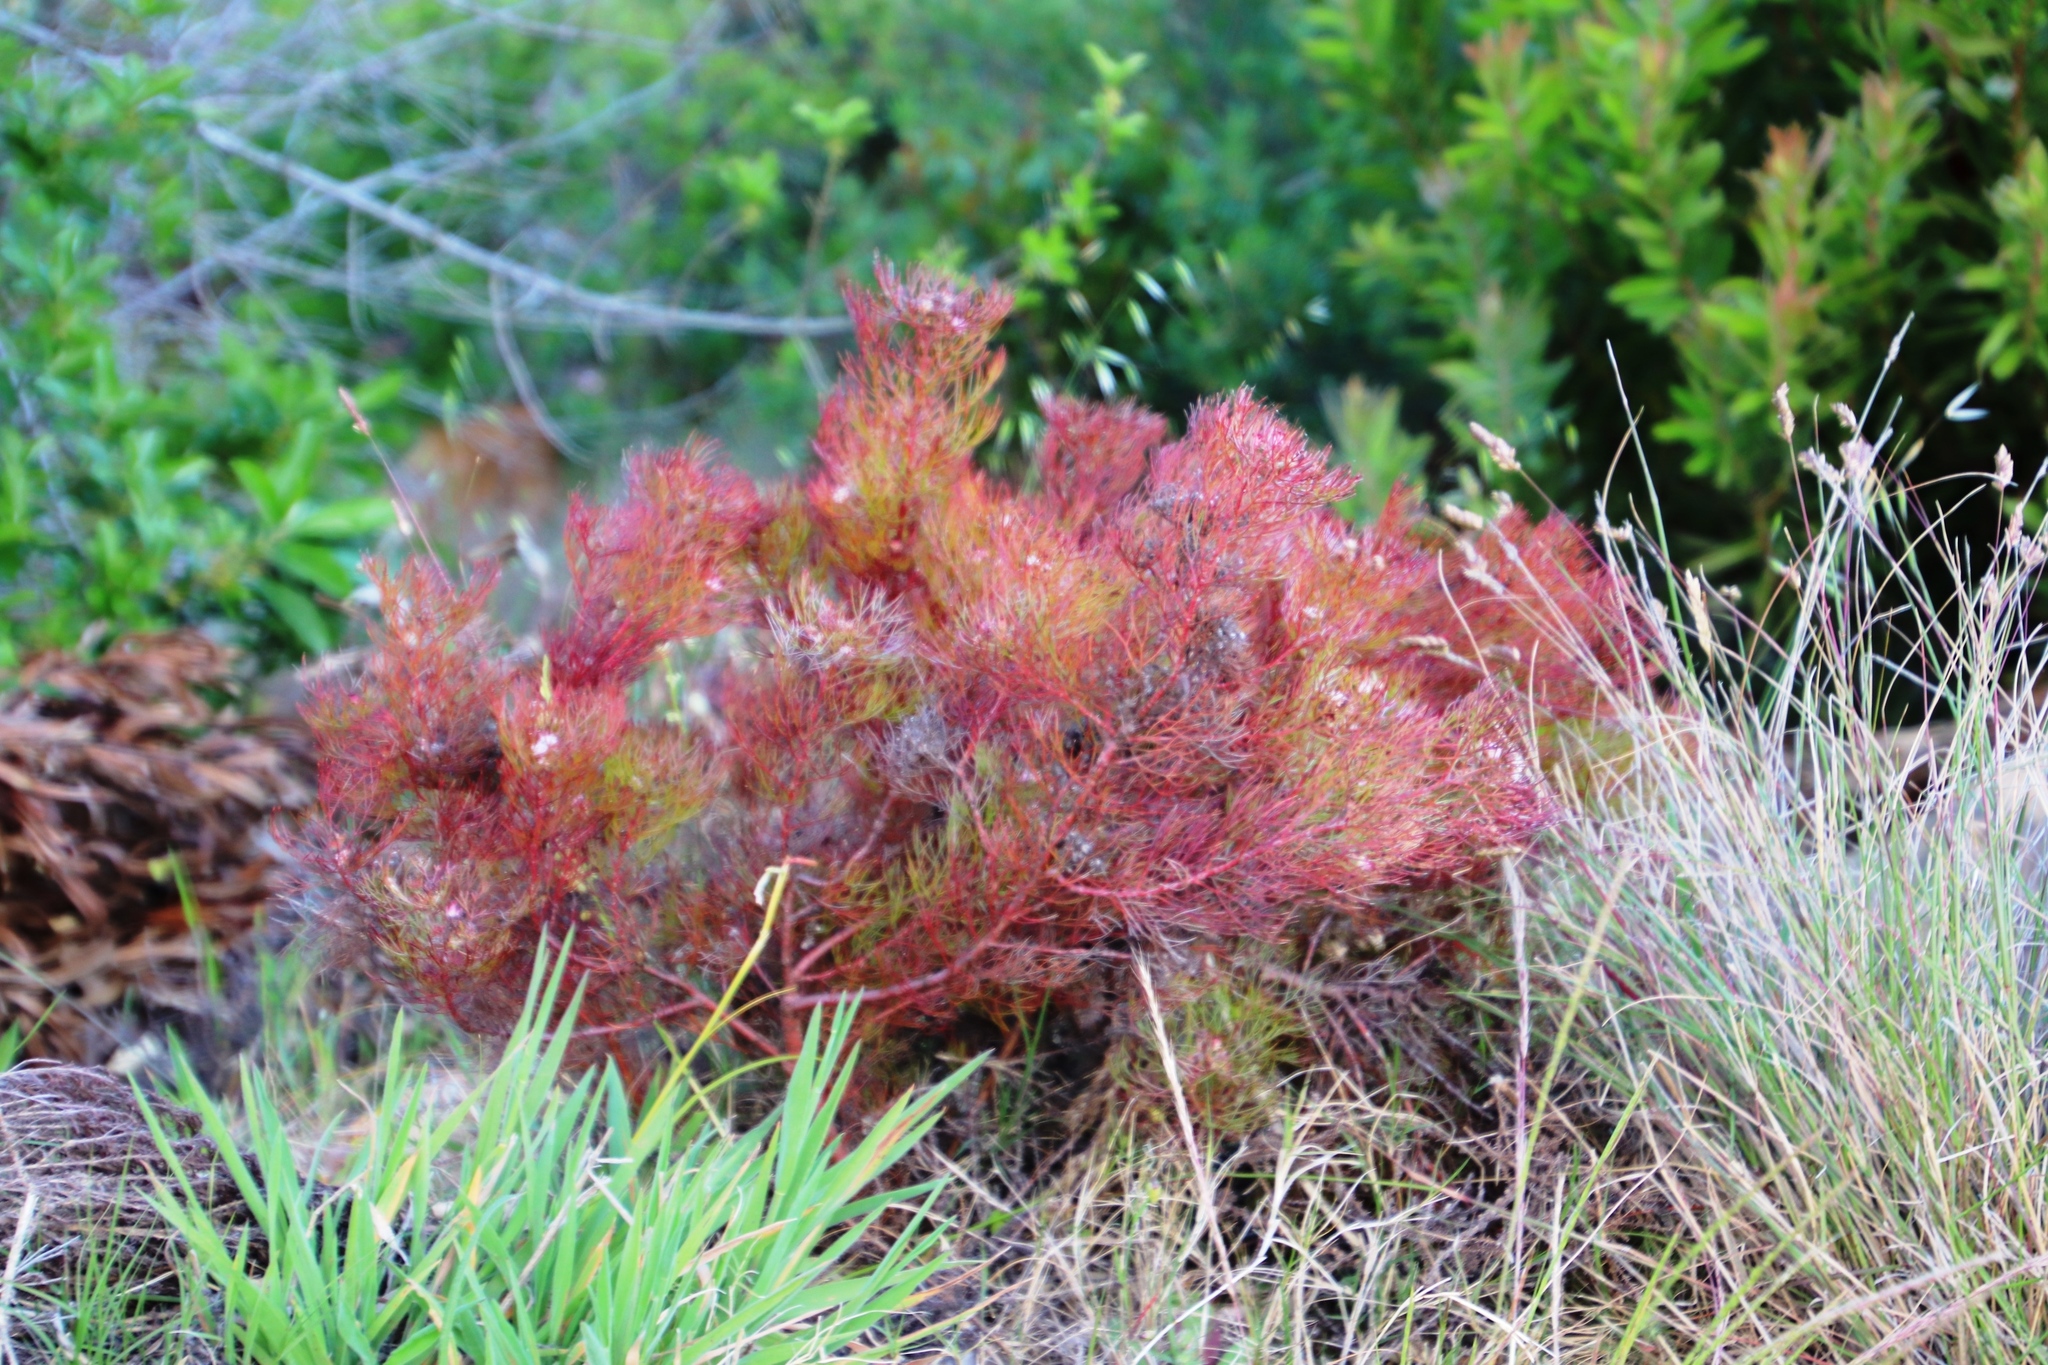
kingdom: Plantae
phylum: Tracheophyta
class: Magnoliopsida
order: Proteales
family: Proteaceae
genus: Serruria
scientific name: Serruria fasciflora
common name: Common pin spiderhead
